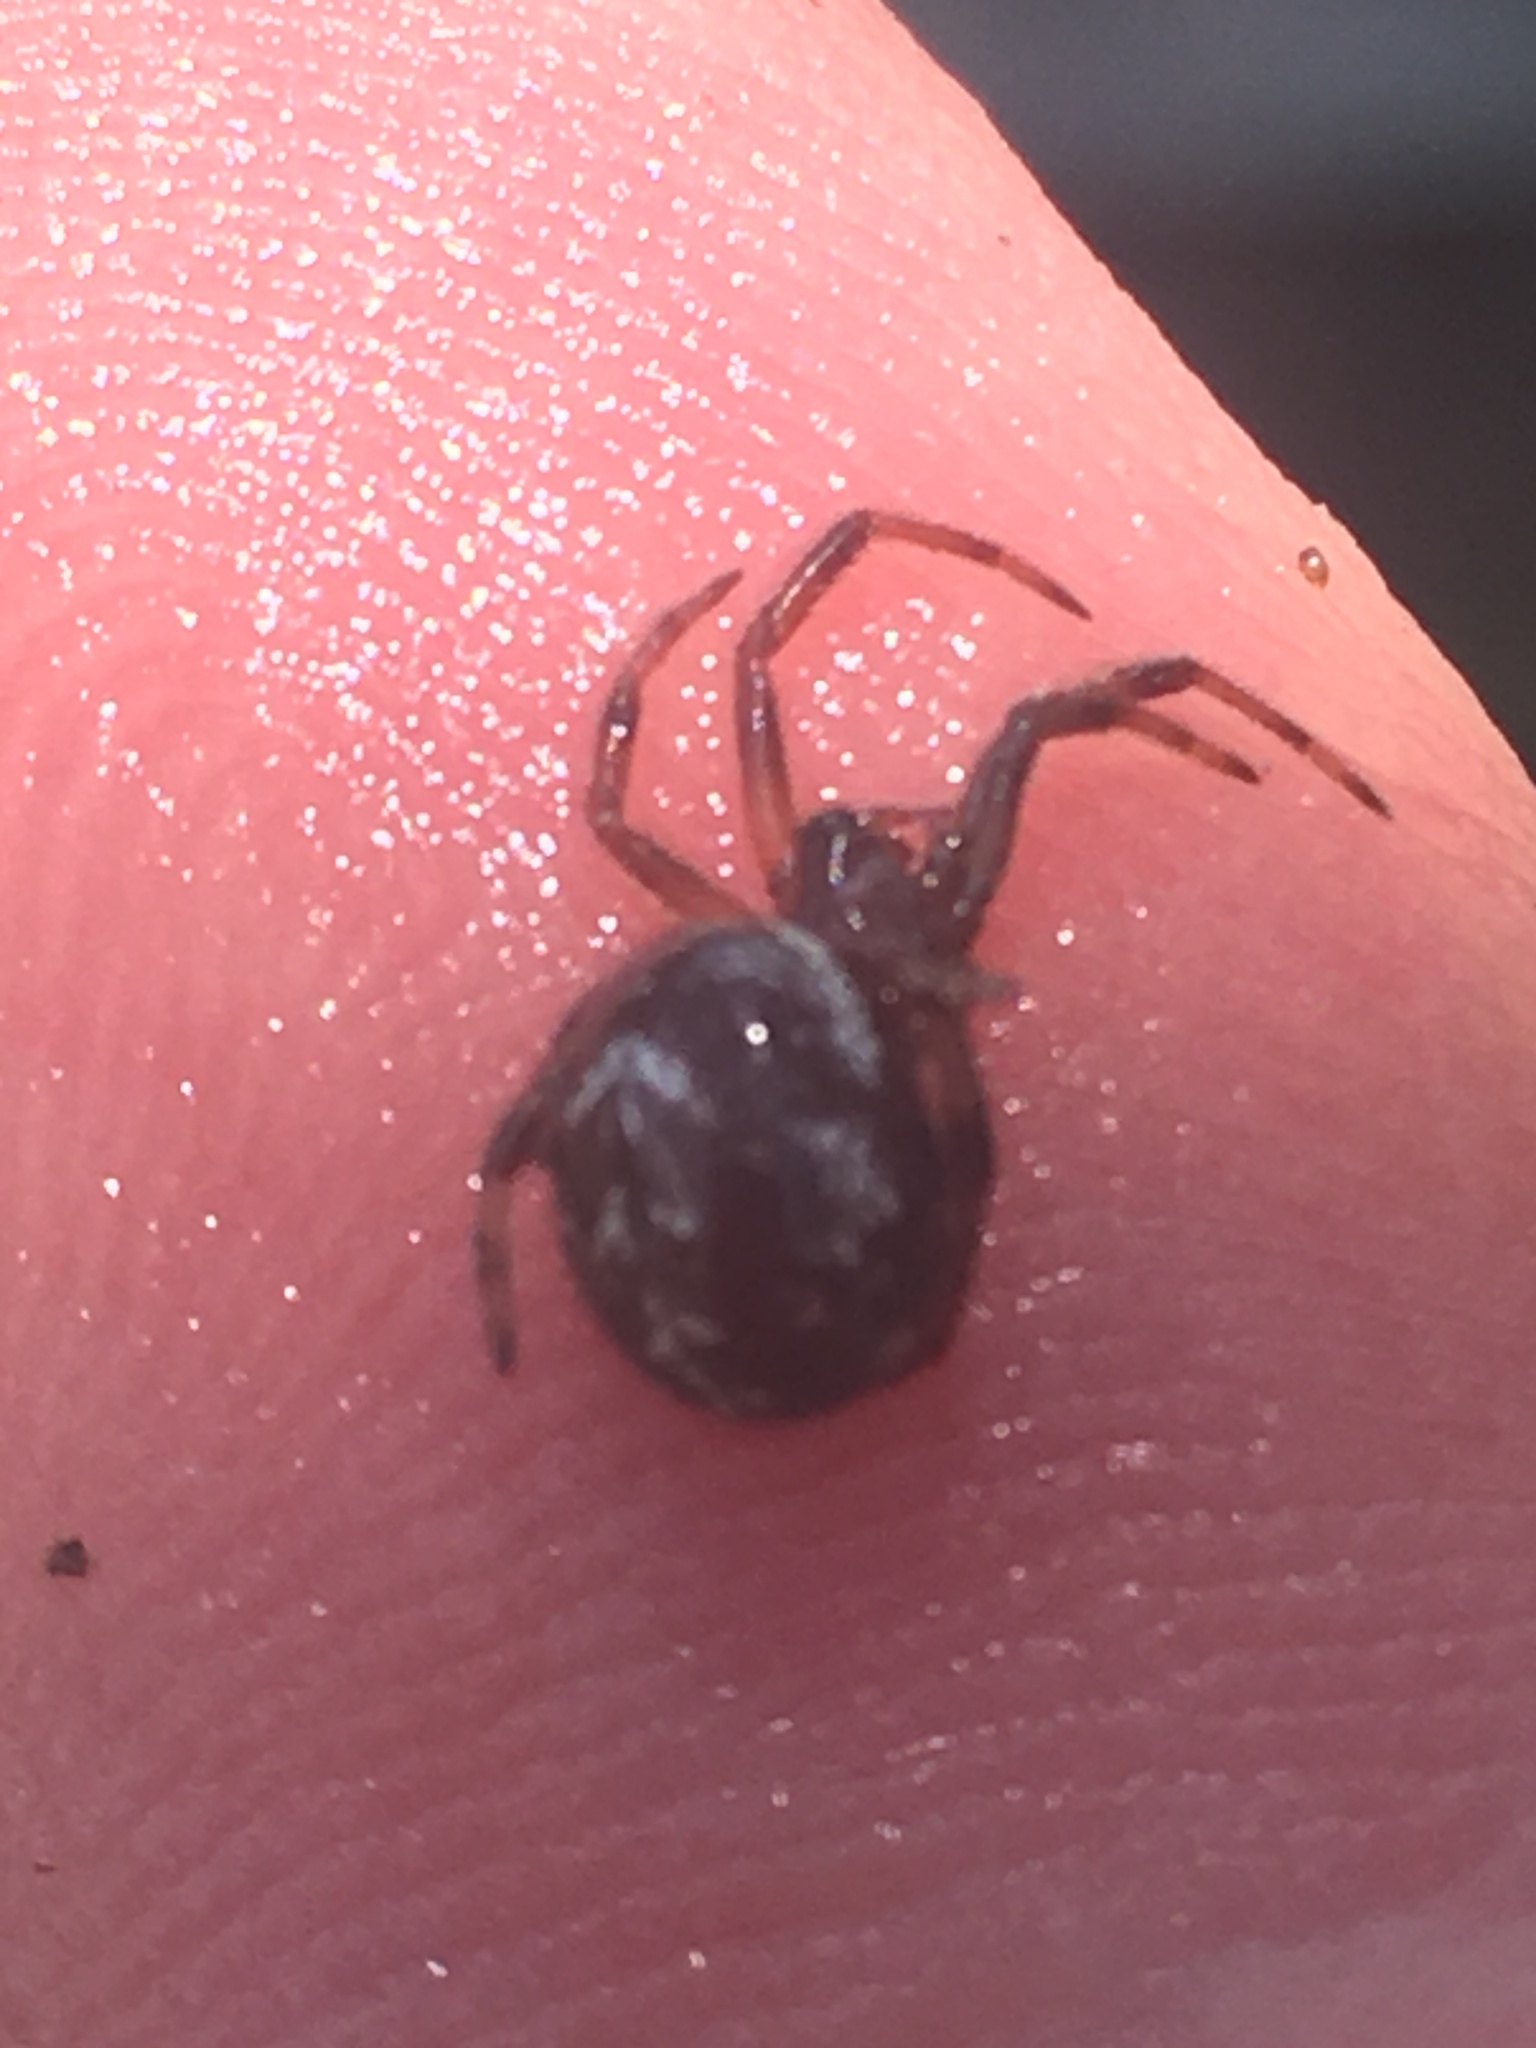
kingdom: Animalia
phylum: Arthropoda
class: Arachnida
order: Araneae
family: Theridiidae
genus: Steatoda
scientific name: Steatoda paykulliana
